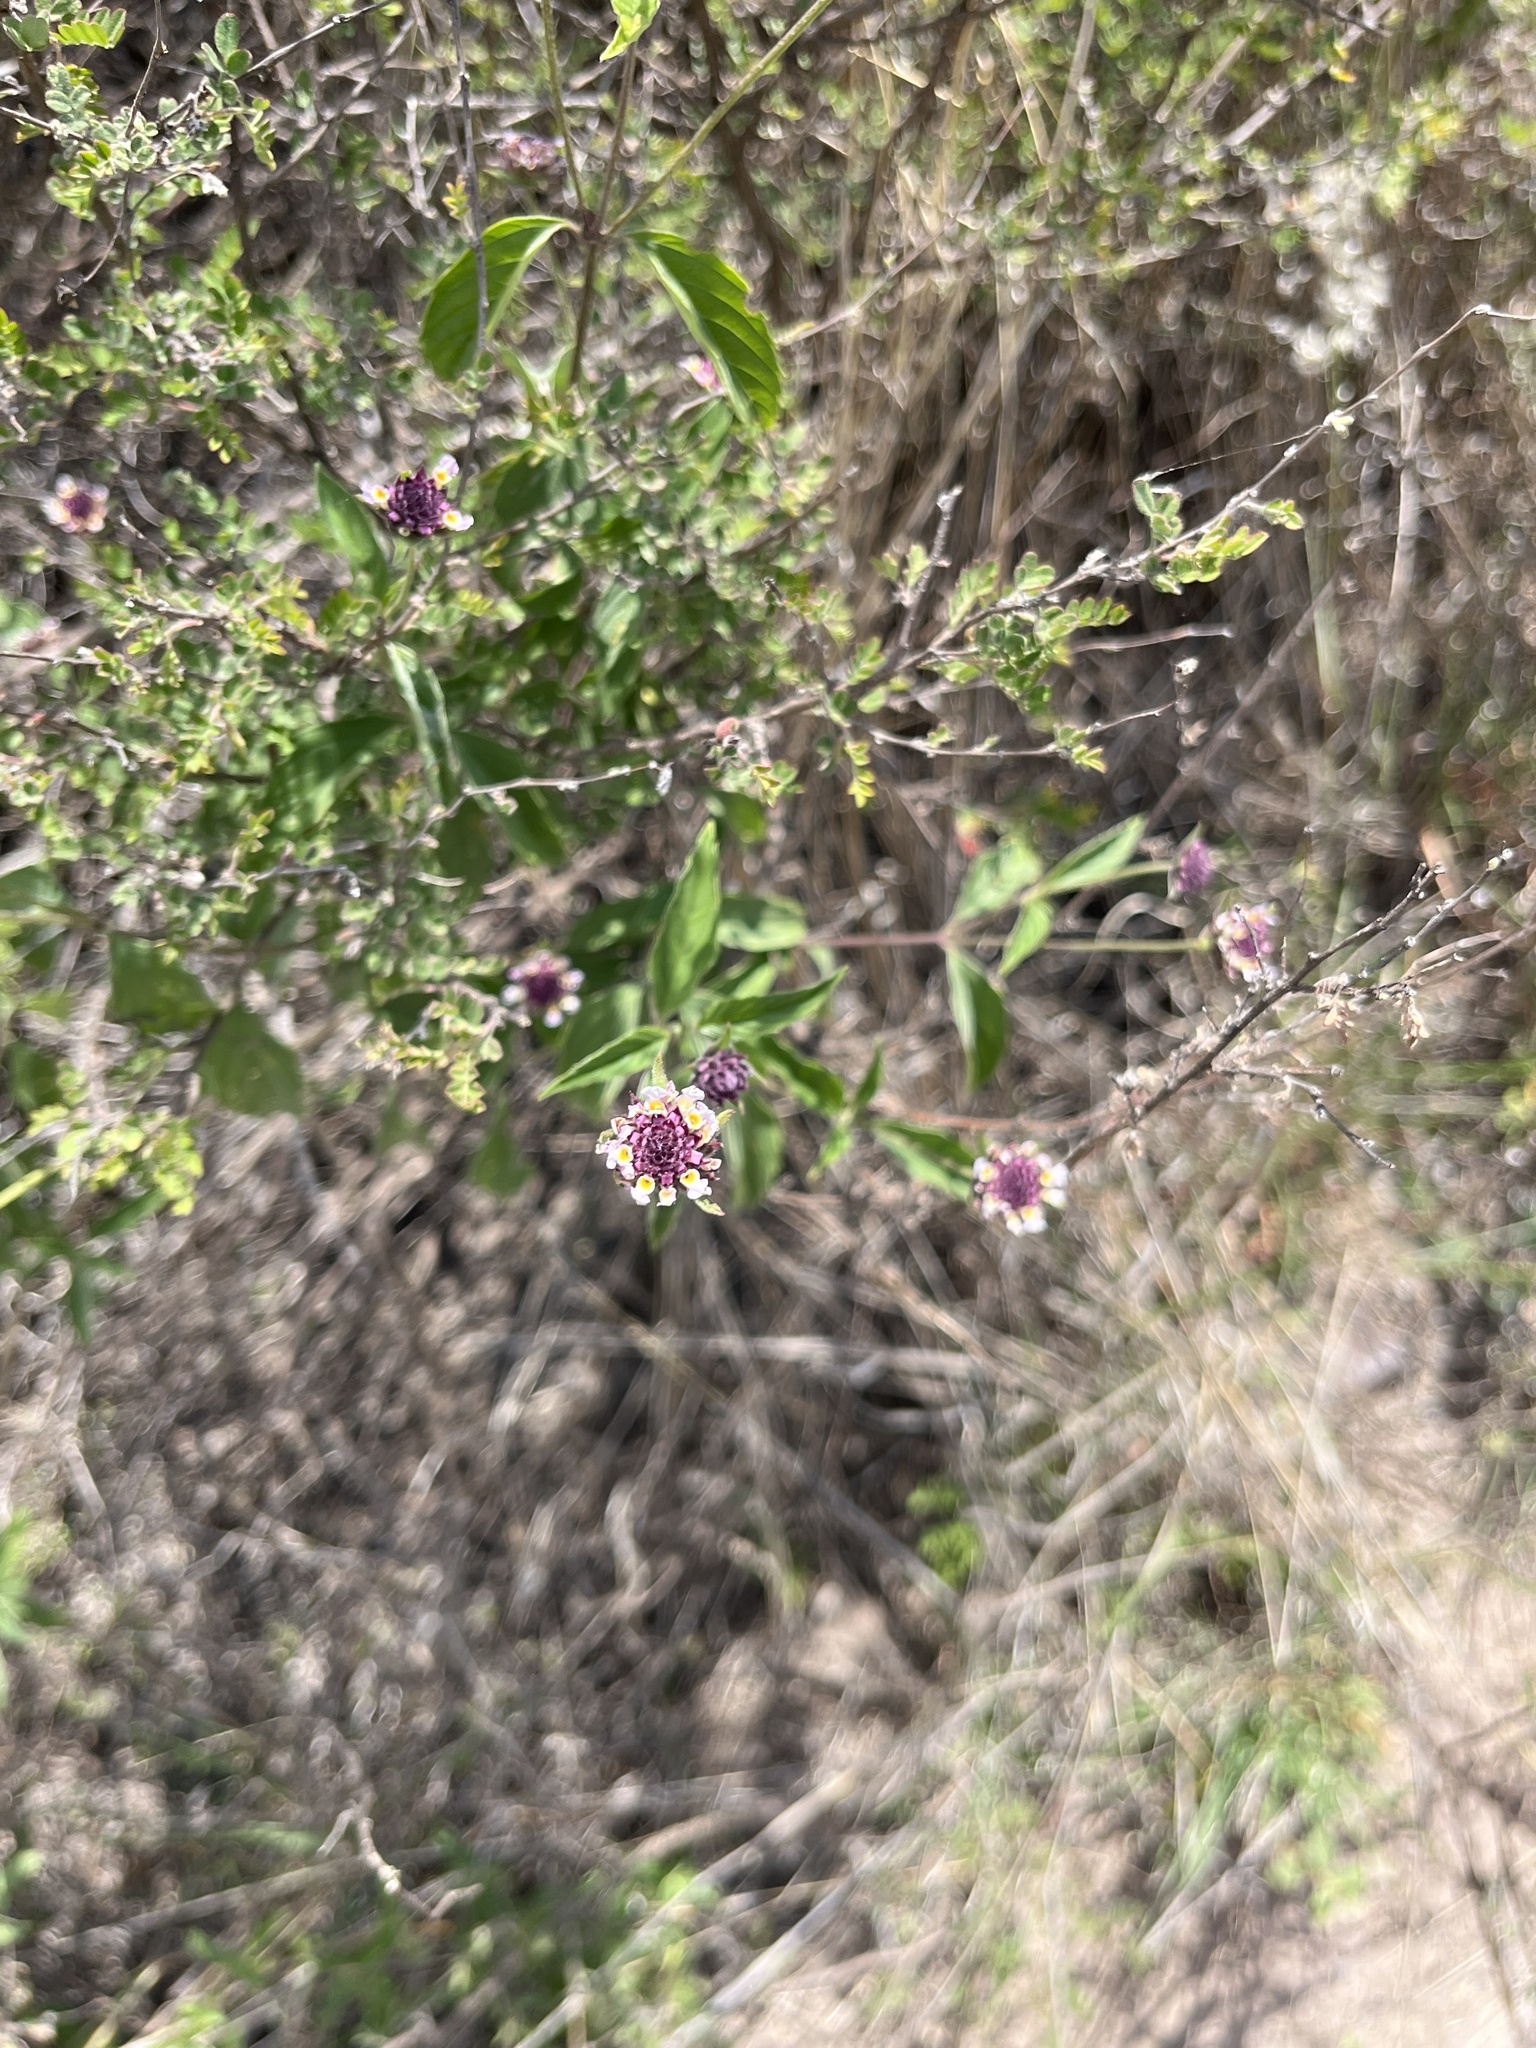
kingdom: Plantae
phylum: Tracheophyta
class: Magnoliopsida
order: Lamiales
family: Verbenaceae
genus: Lantana
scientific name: Lantana achyranthifolia
